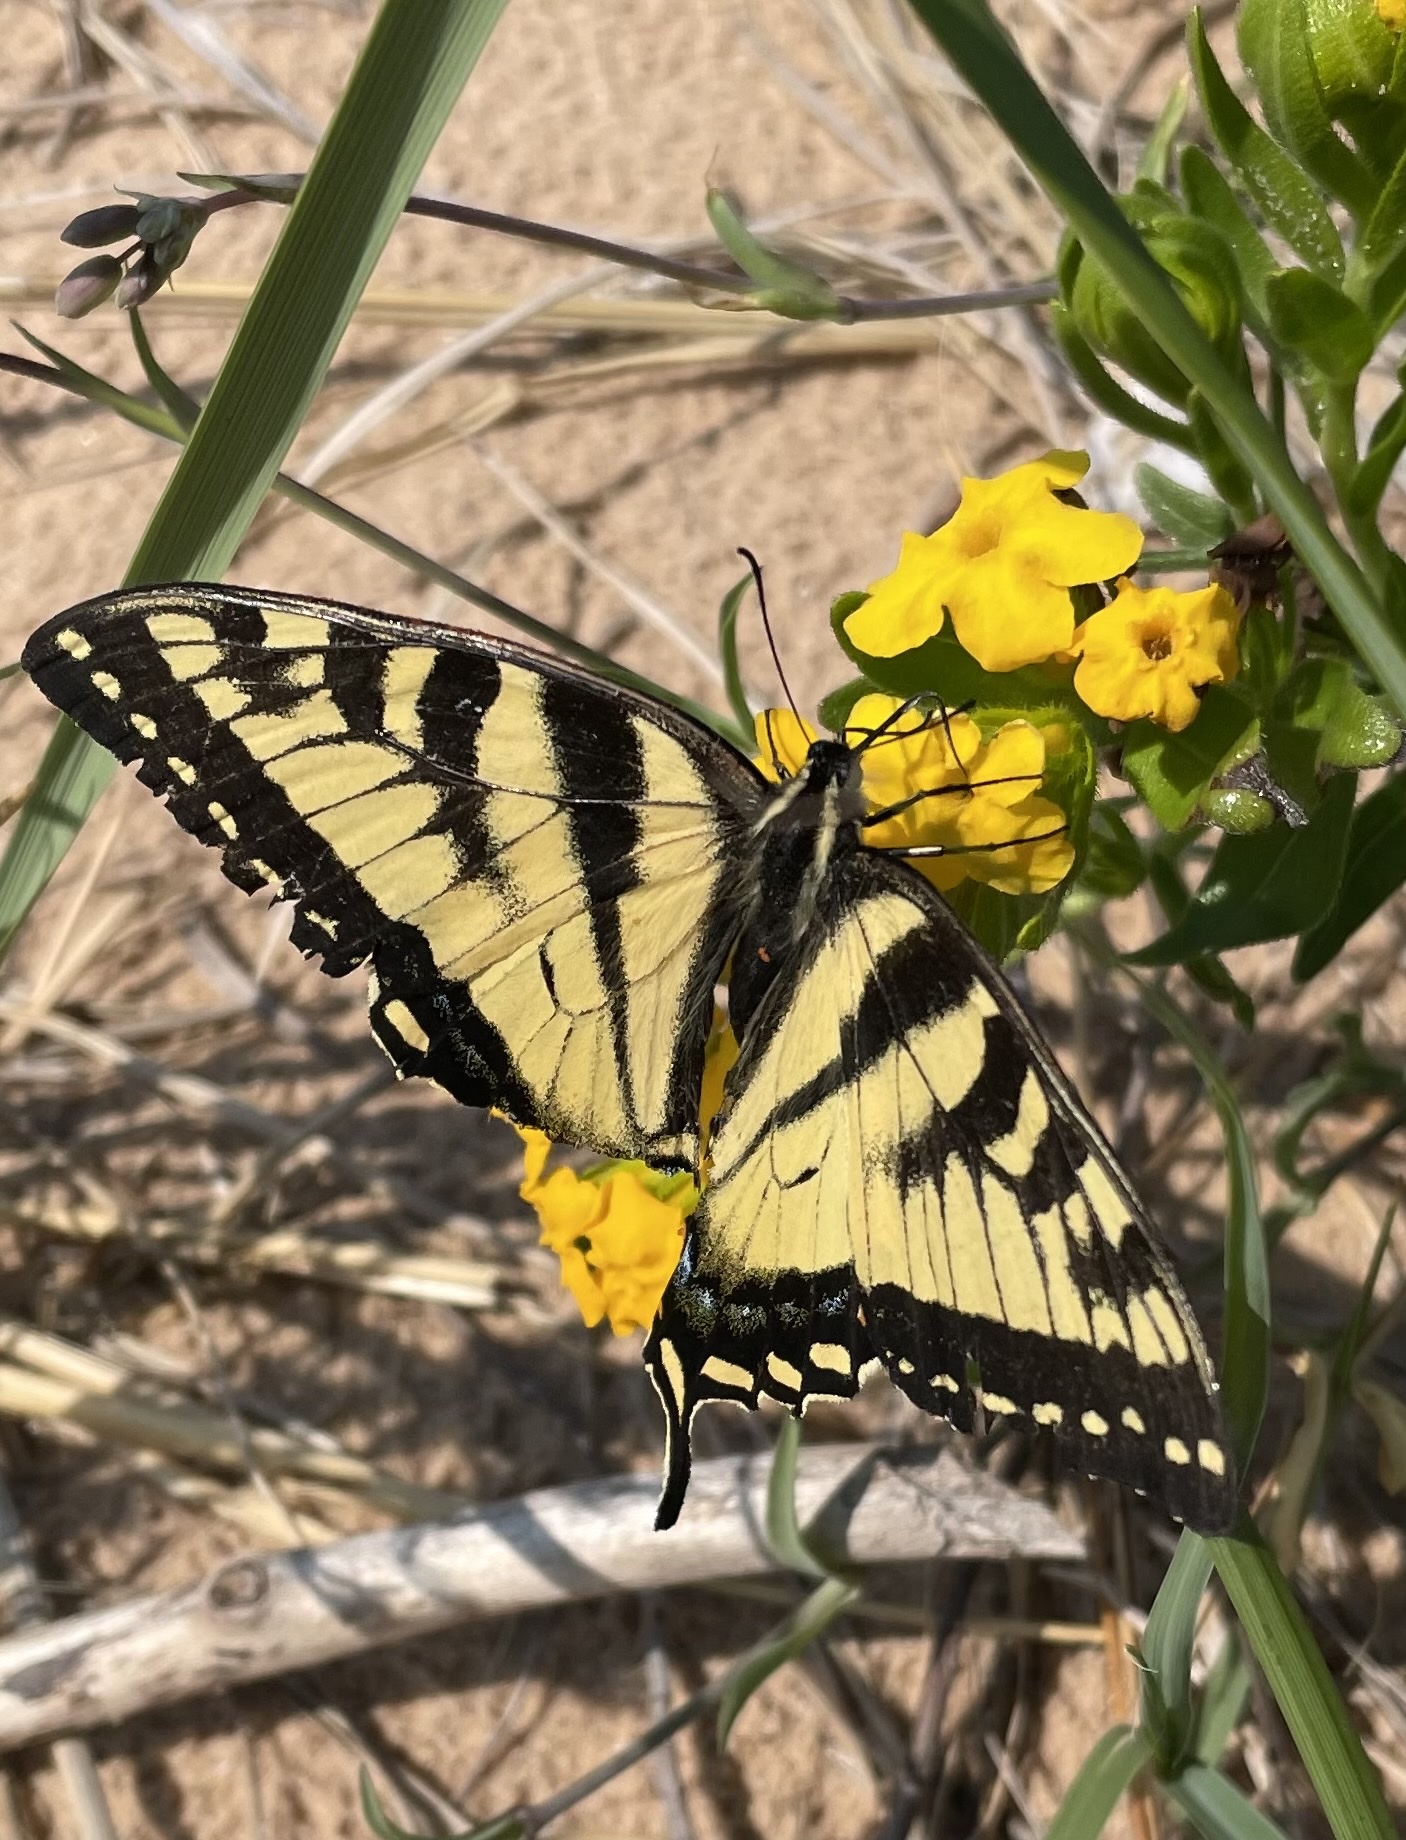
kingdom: Animalia
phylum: Arthropoda
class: Insecta
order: Lepidoptera
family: Papilionidae
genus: Papilio
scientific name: Papilio canadensis
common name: Canadian tiger swallowtail
